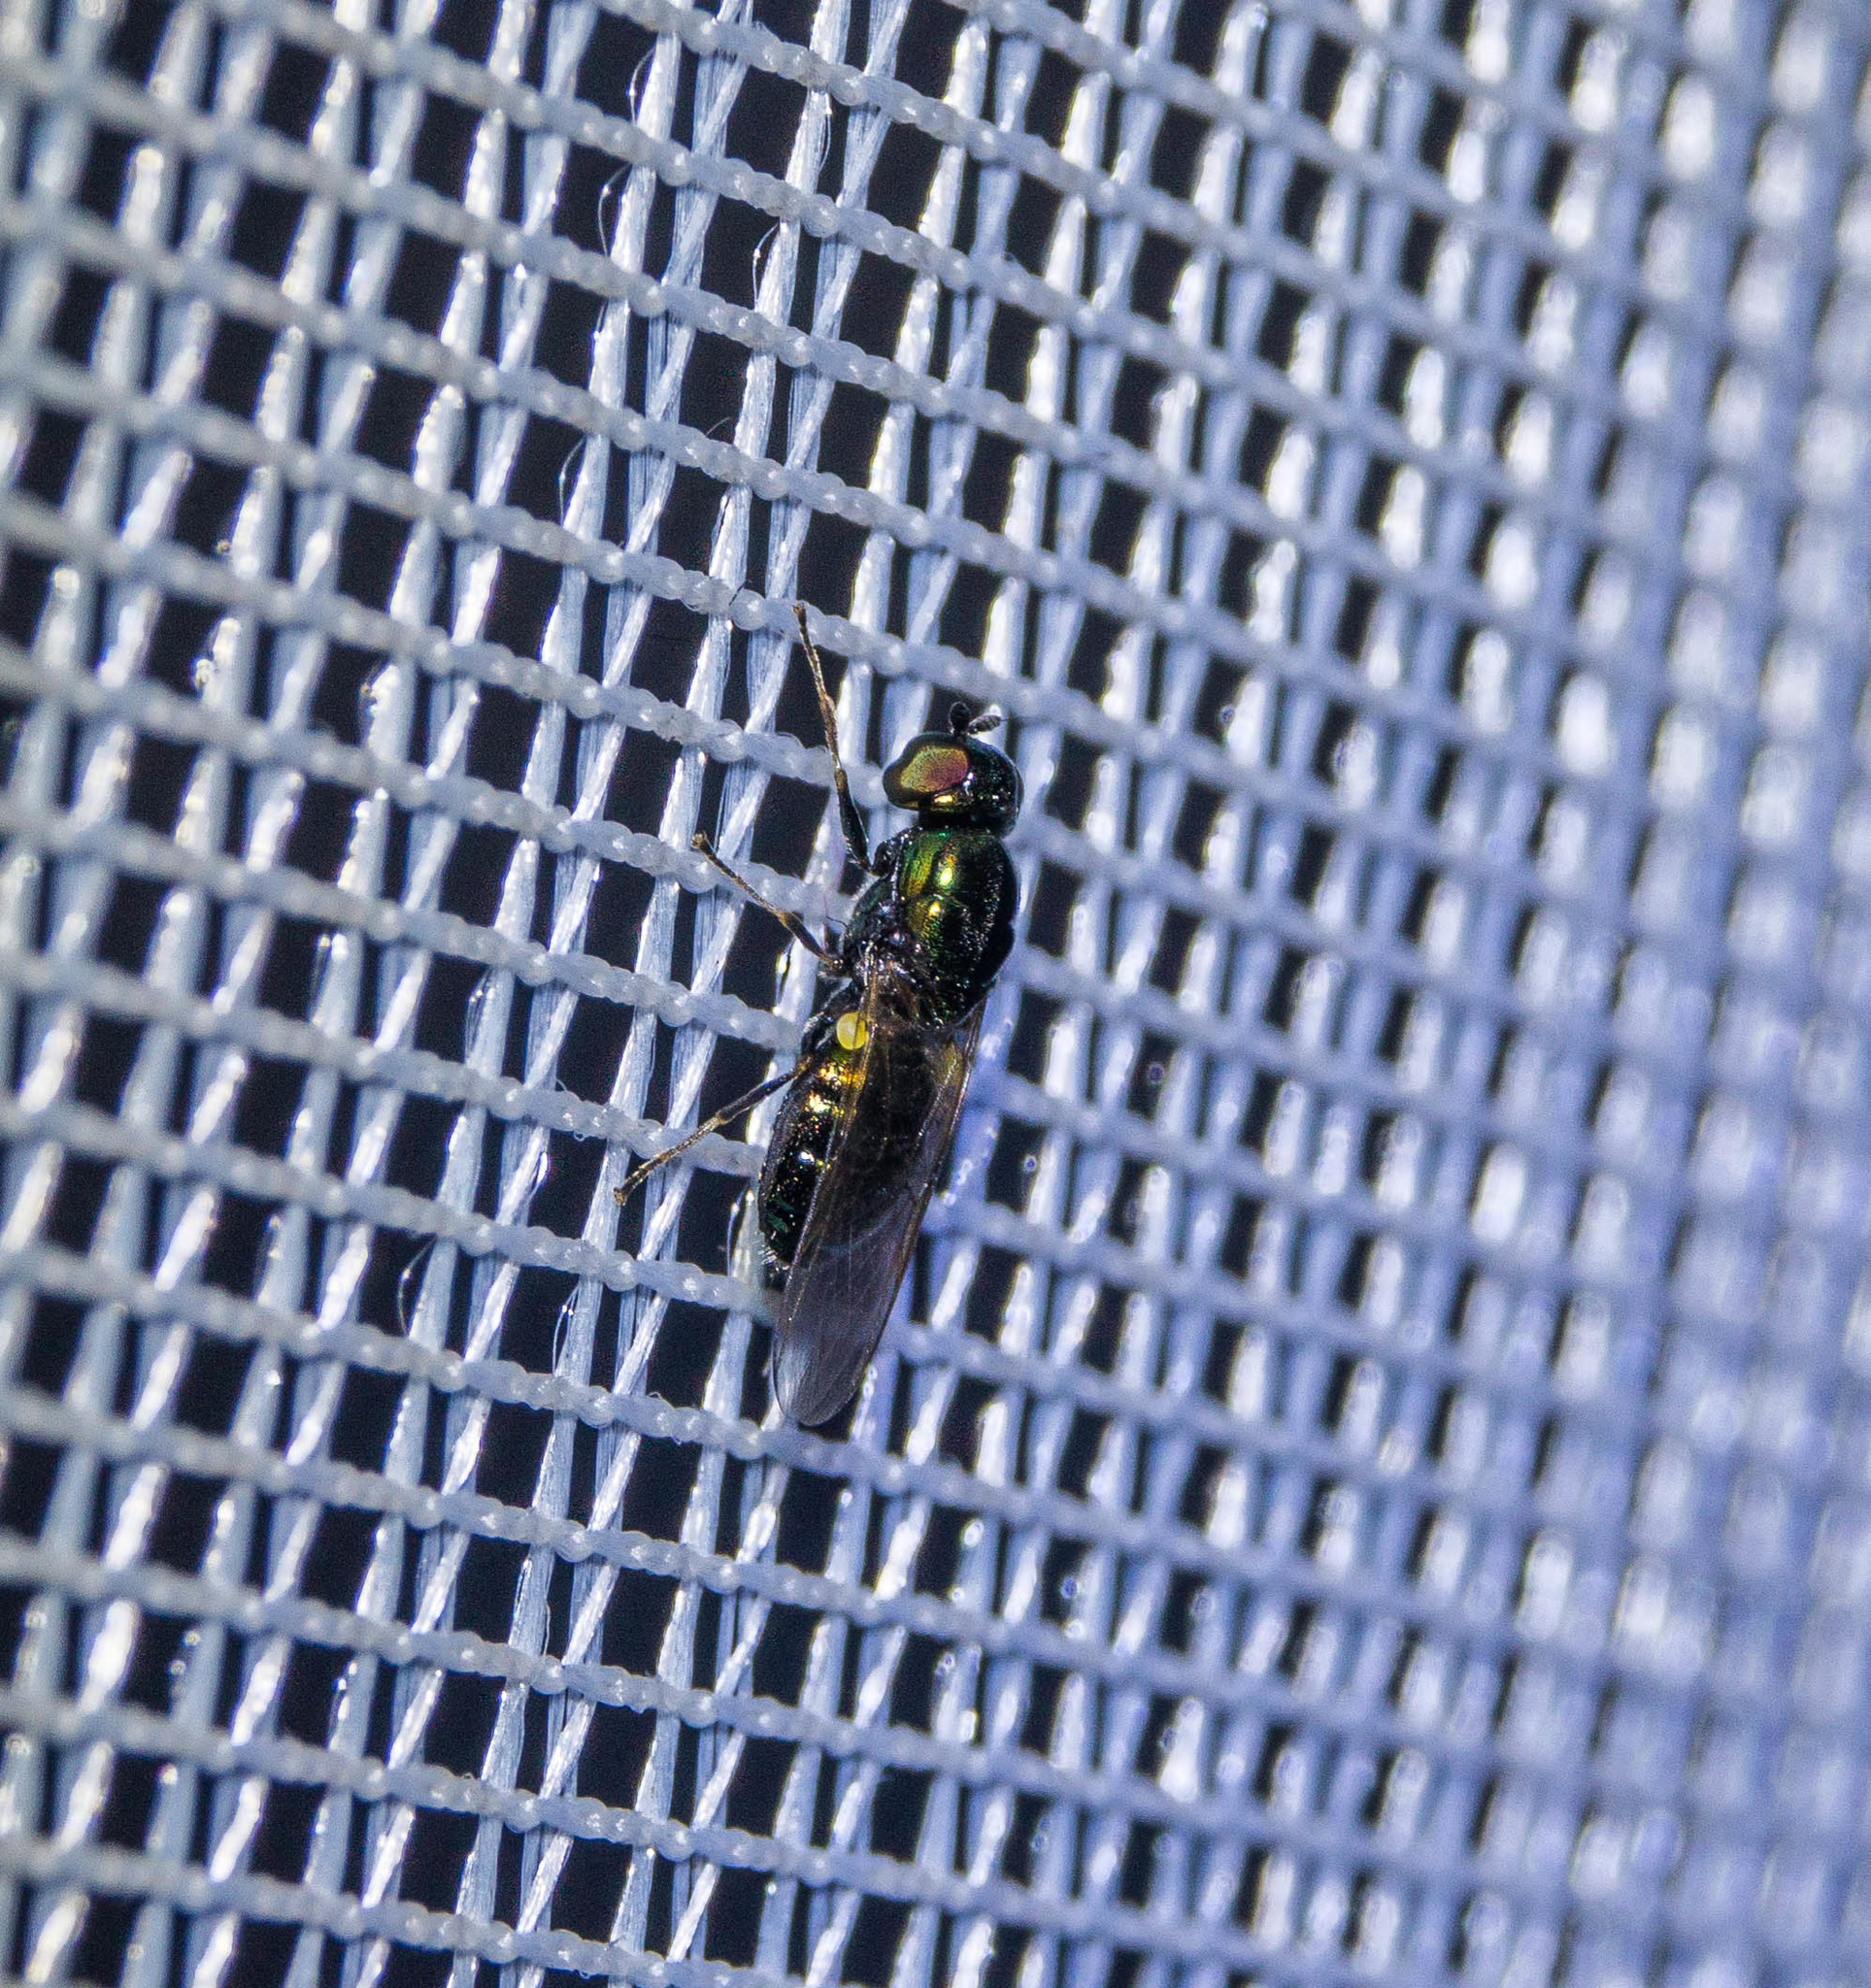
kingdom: Animalia
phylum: Arthropoda
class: Insecta
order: Diptera
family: Stratiomyidae
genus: Microchrysa
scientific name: Microchrysa polita
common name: Black-horned gem
